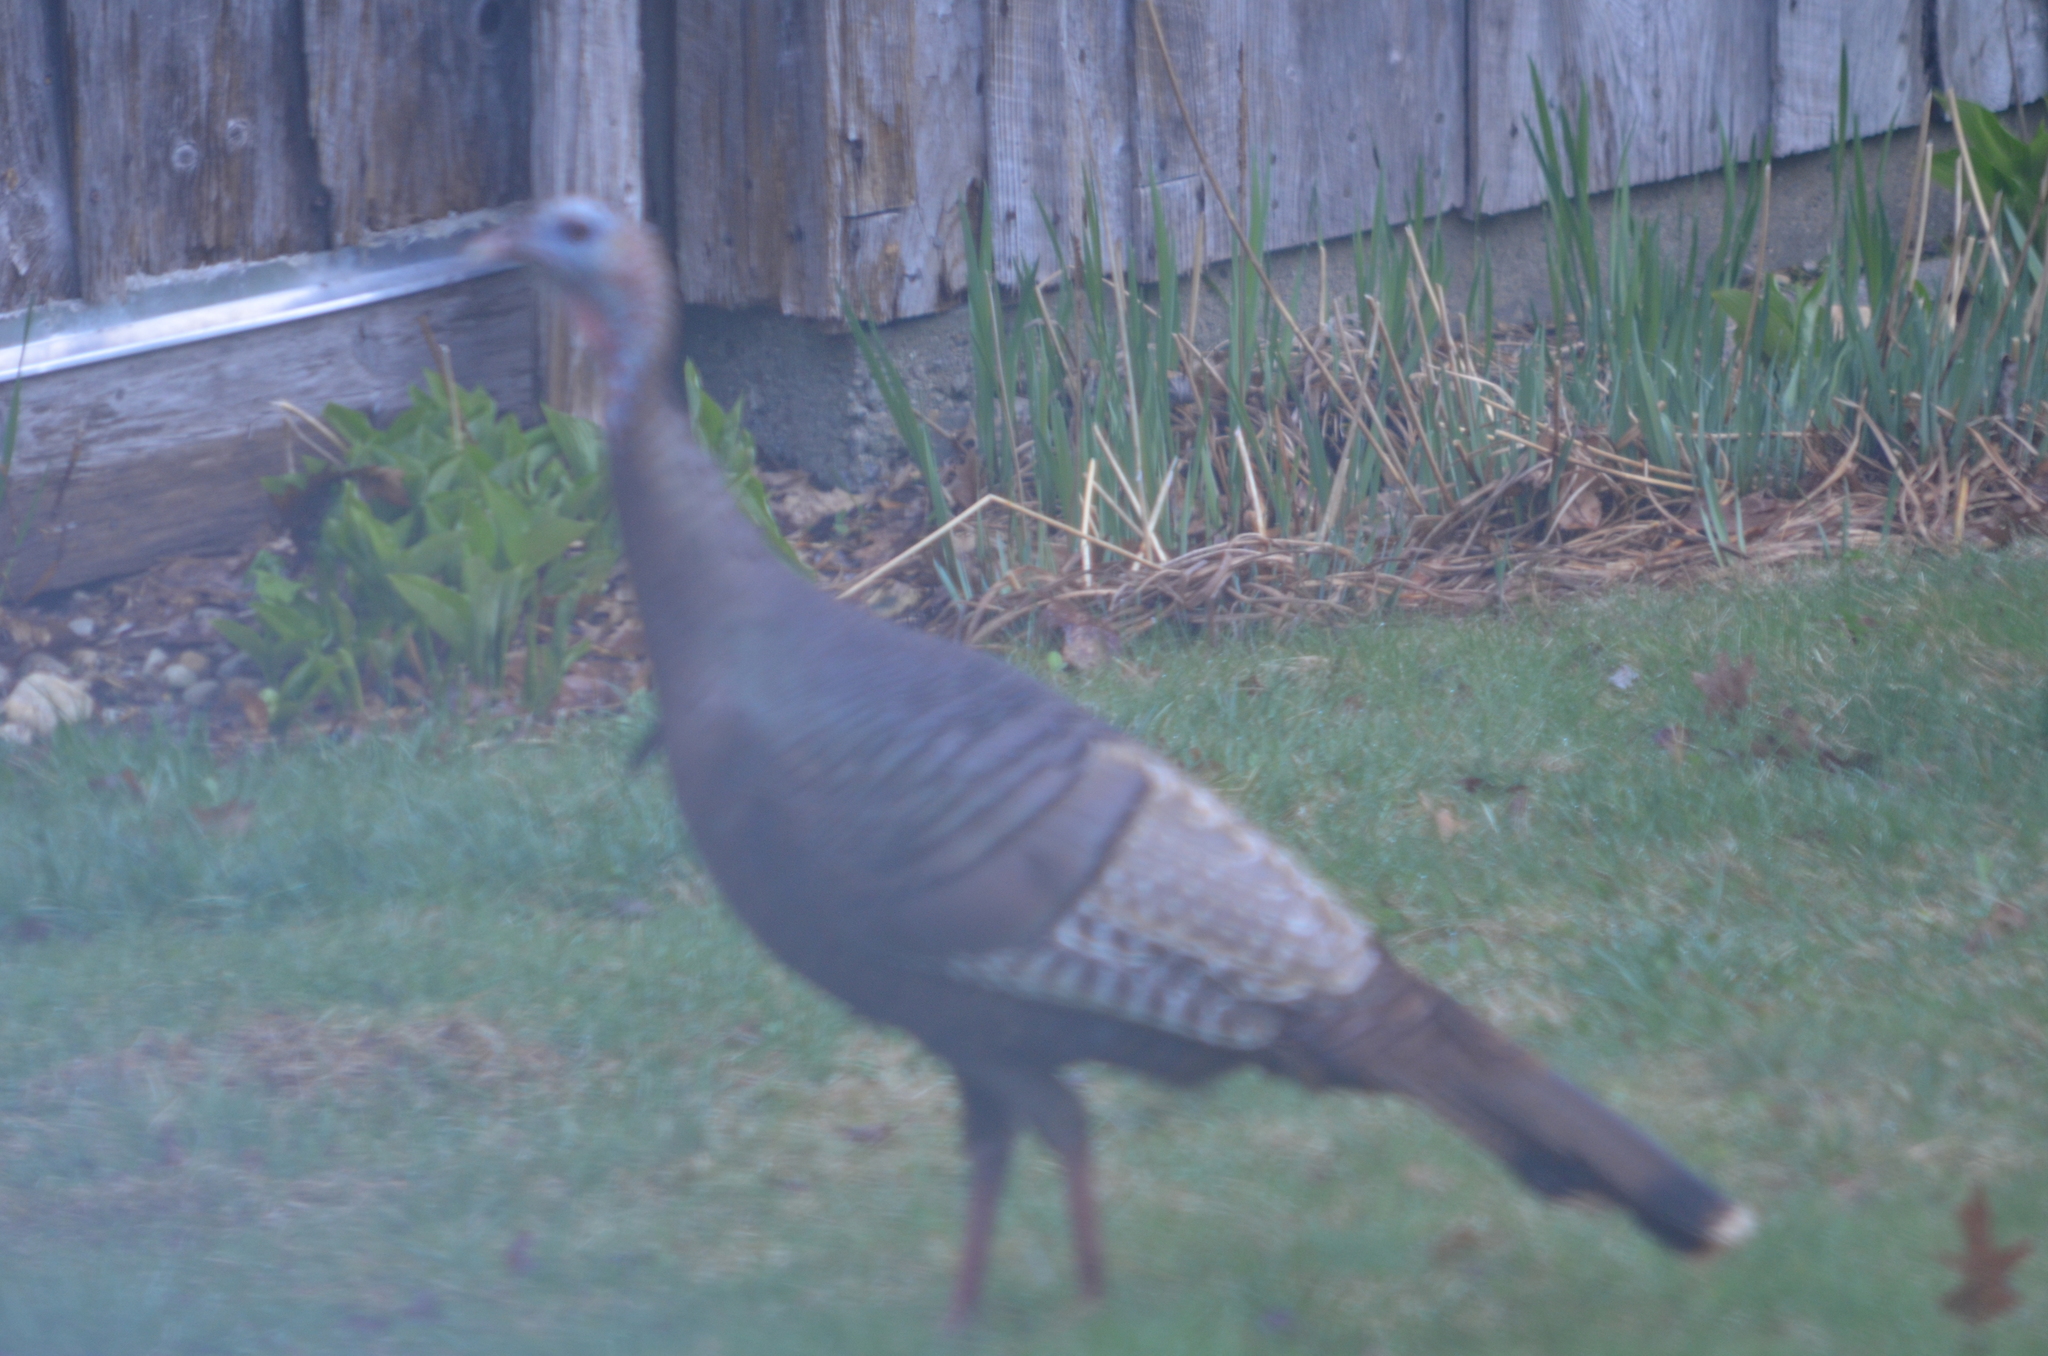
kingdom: Animalia
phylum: Chordata
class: Aves
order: Galliformes
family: Phasianidae
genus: Meleagris
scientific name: Meleagris gallopavo
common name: Wild turkey
